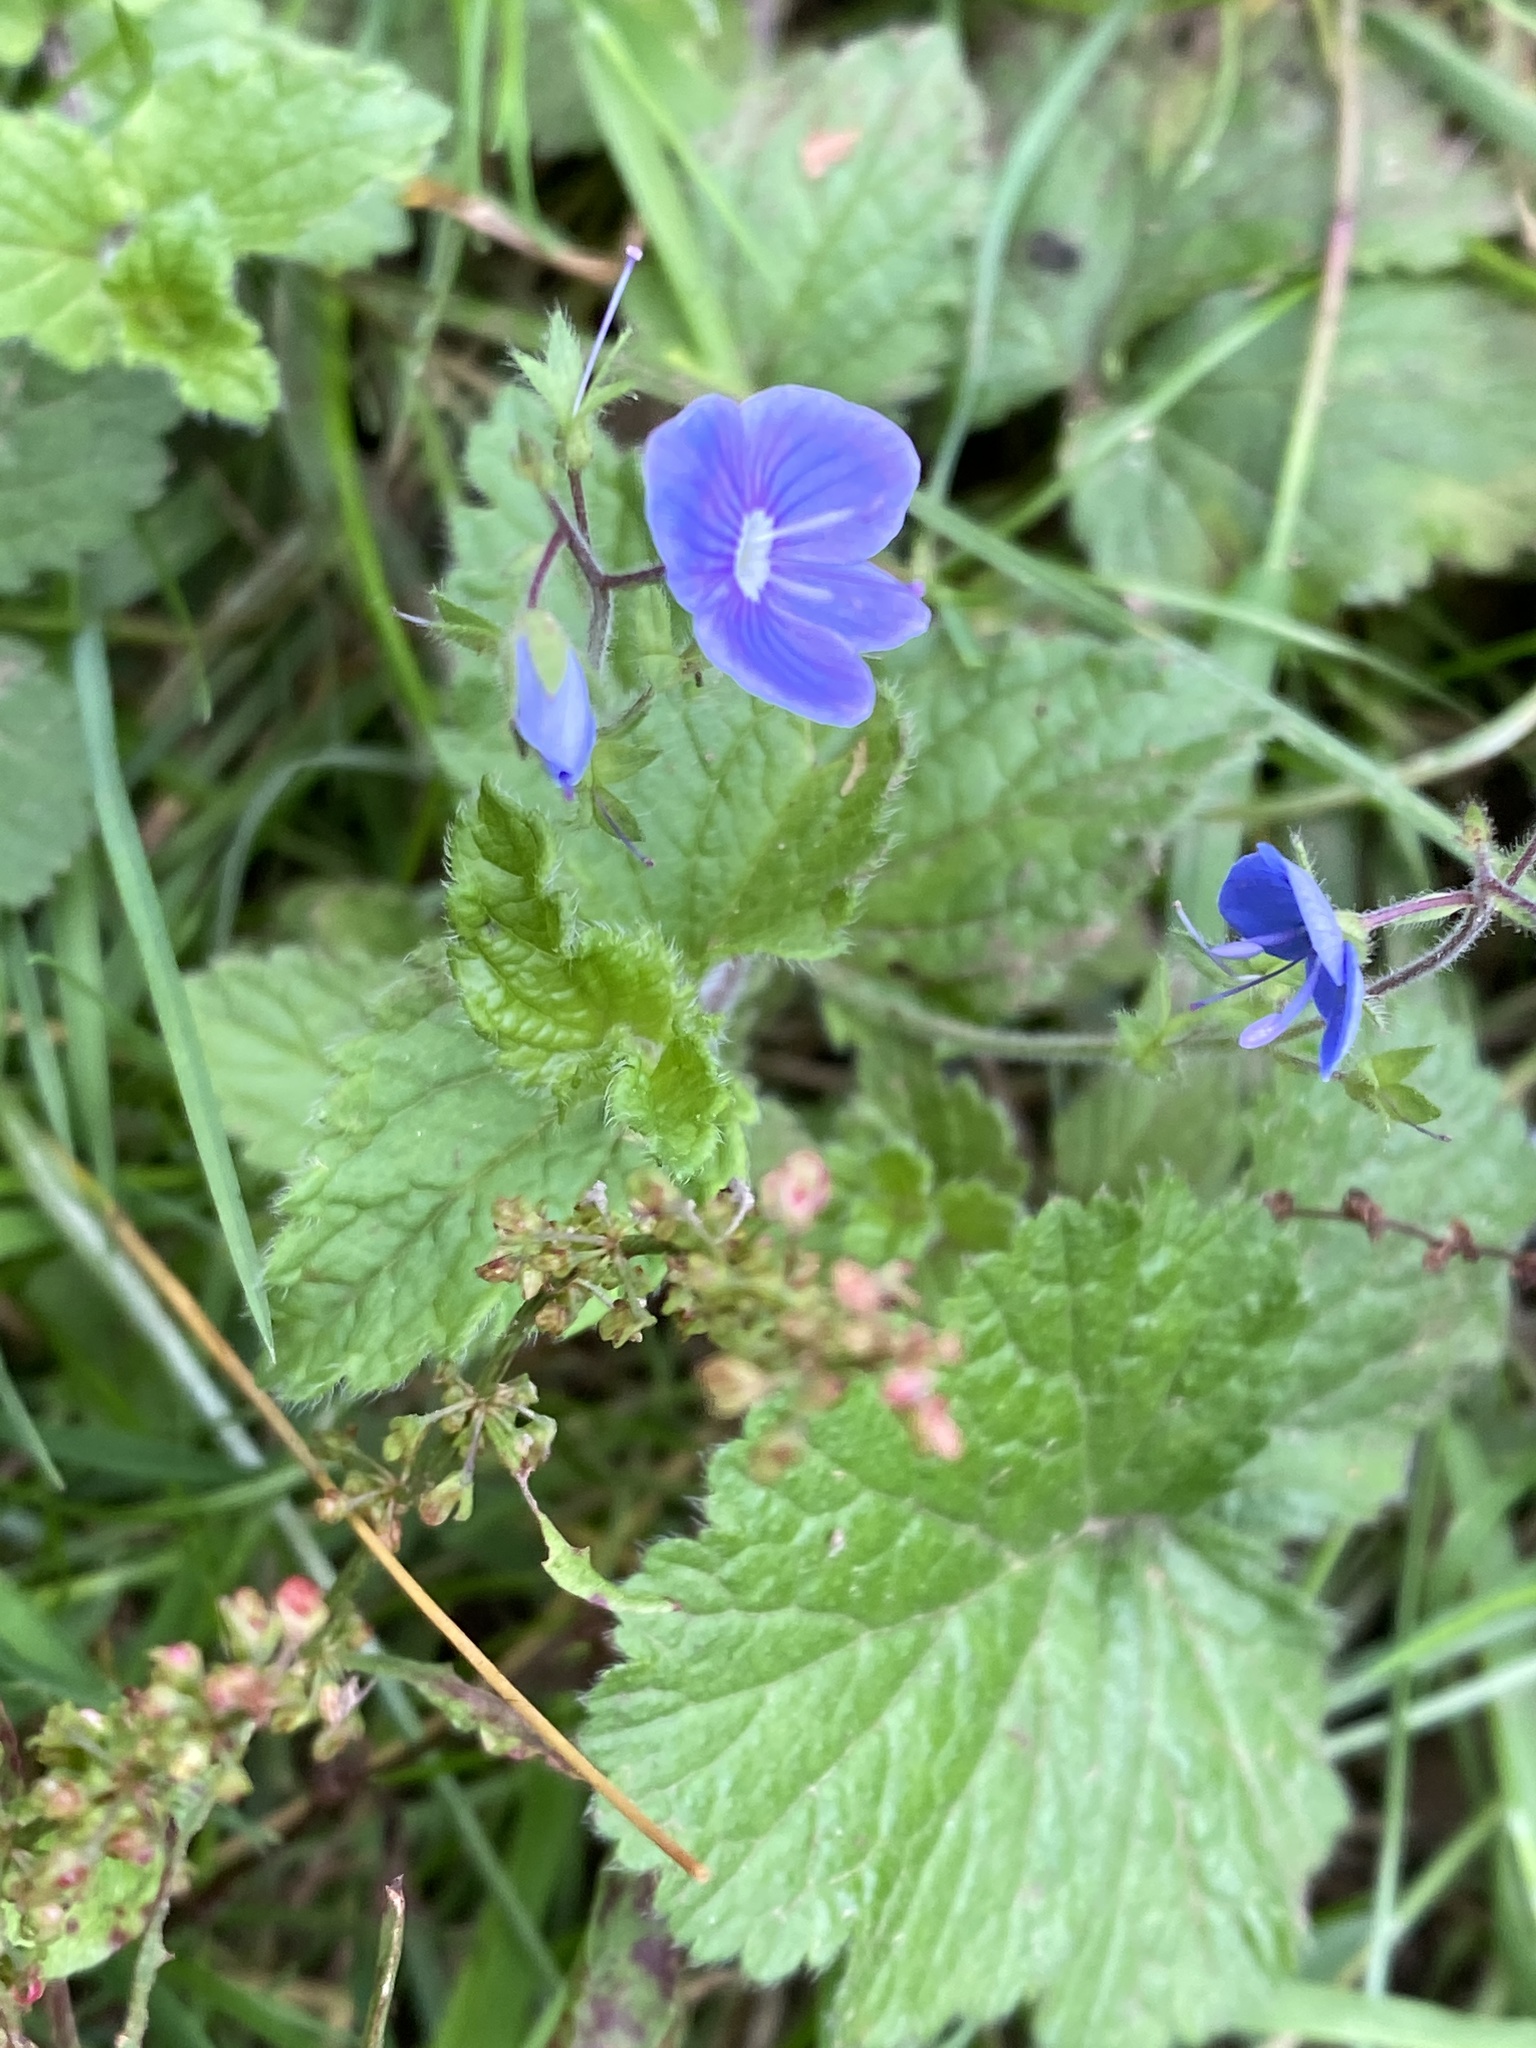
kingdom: Plantae
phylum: Tracheophyta
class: Magnoliopsida
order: Lamiales
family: Plantaginaceae
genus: Veronica
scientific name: Veronica chamaedrys
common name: Germander speedwell
